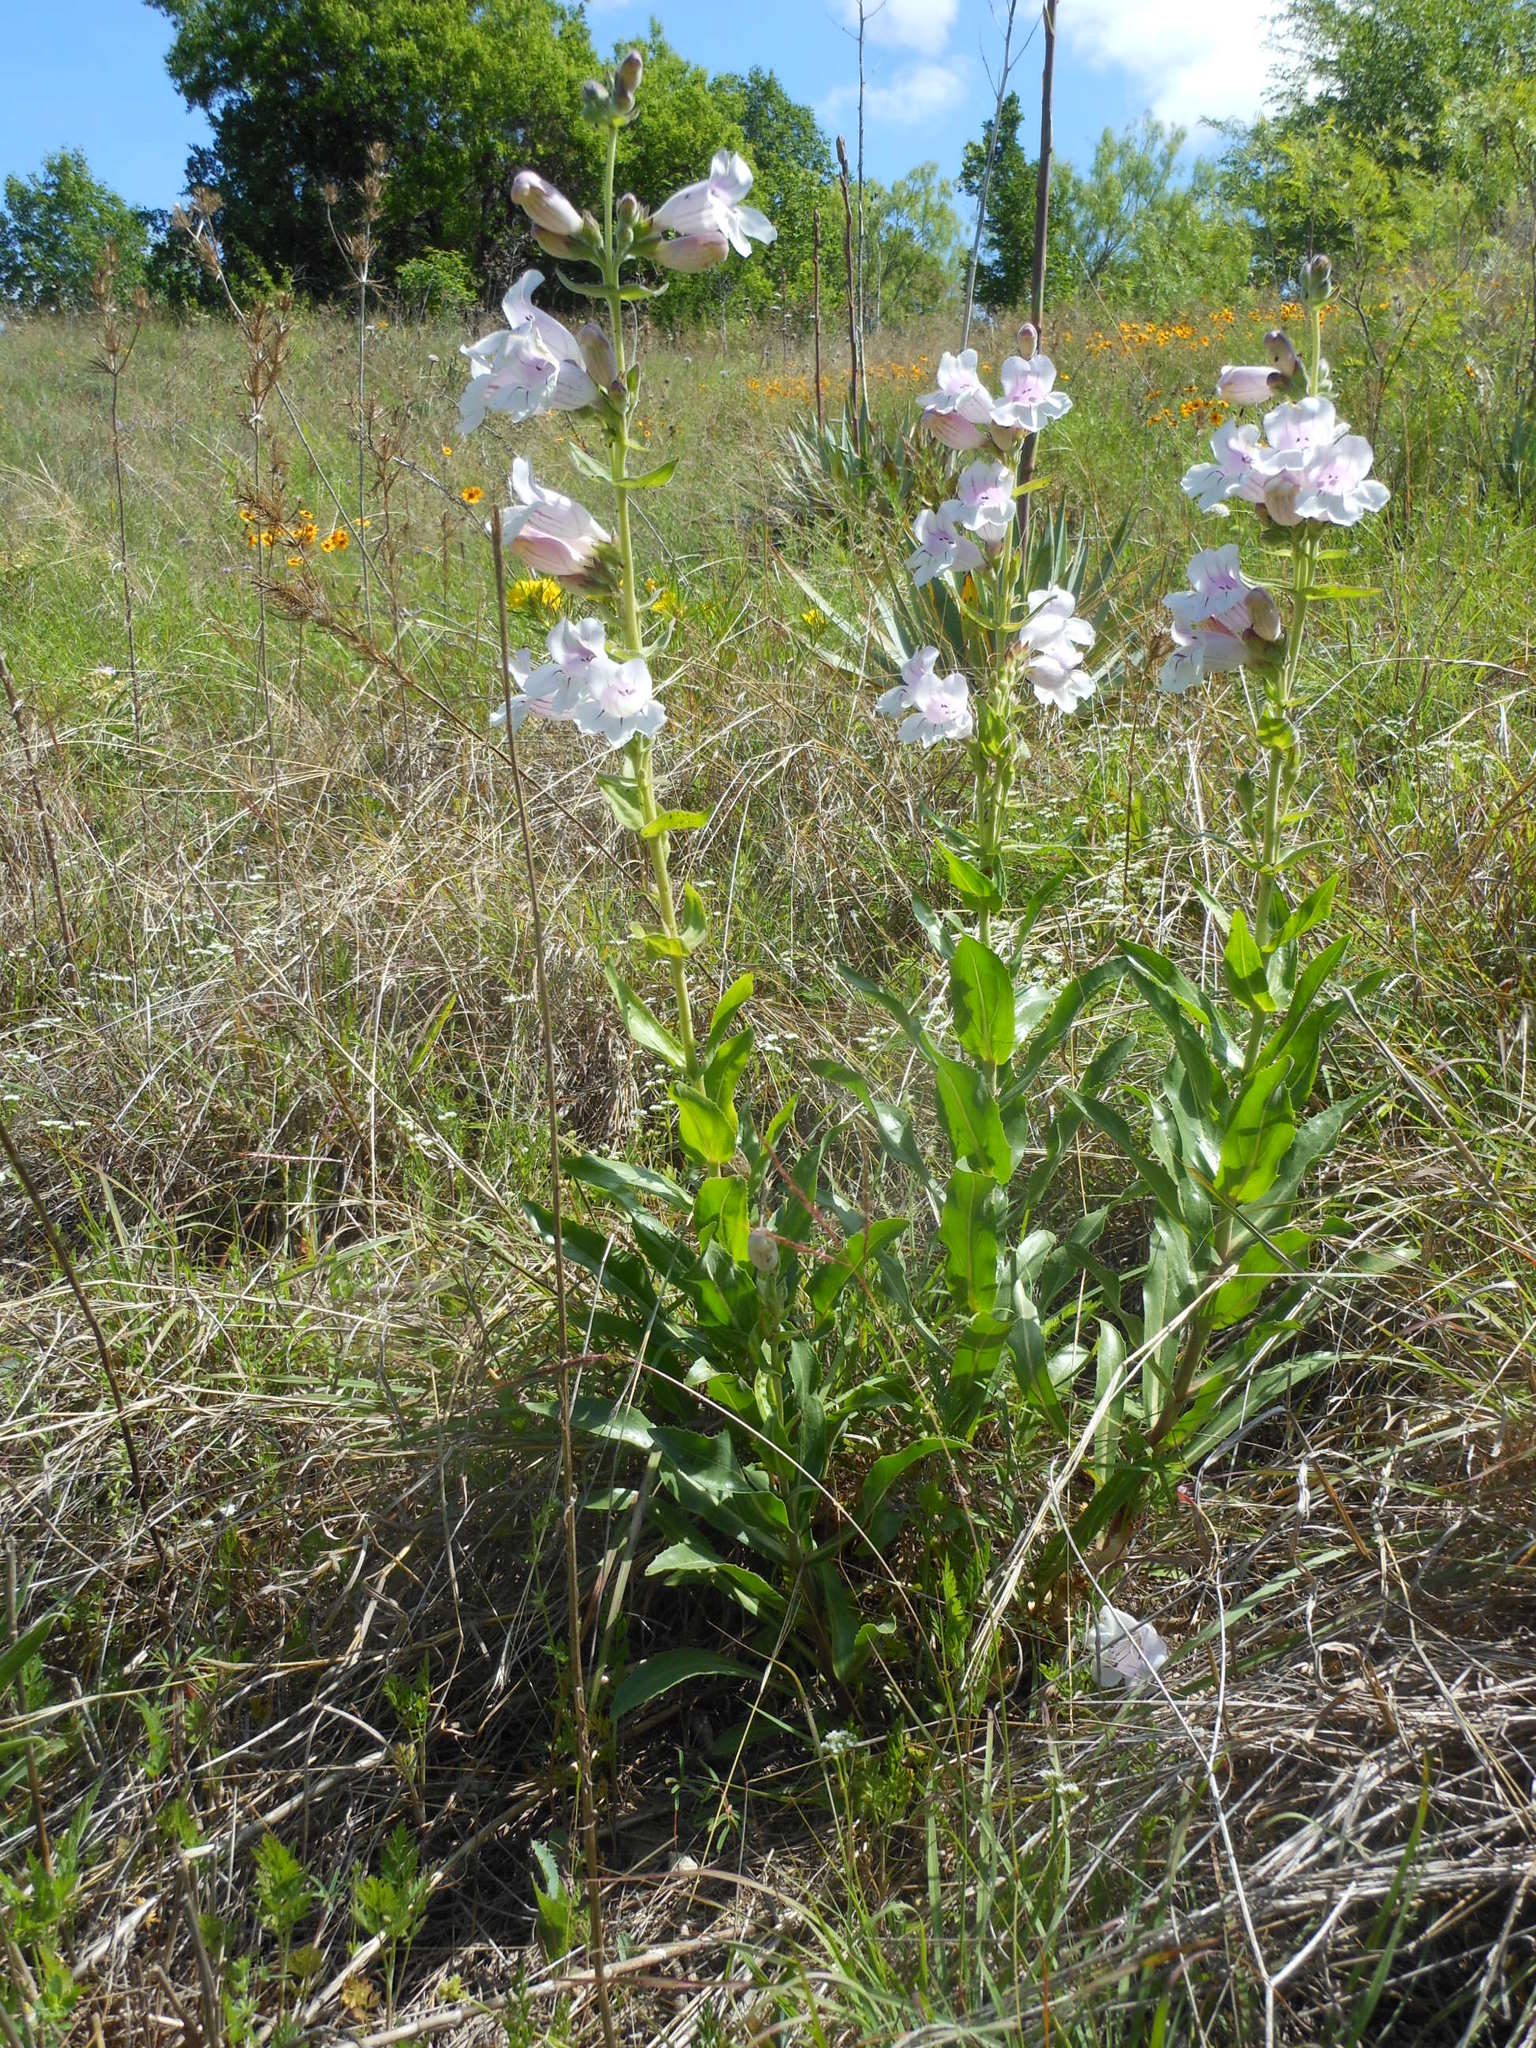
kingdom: Plantae
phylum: Tracheophyta
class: Magnoliopsida
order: Lamiales
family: Plantaginaceae
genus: Penstemon
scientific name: Penstemon cobaea
